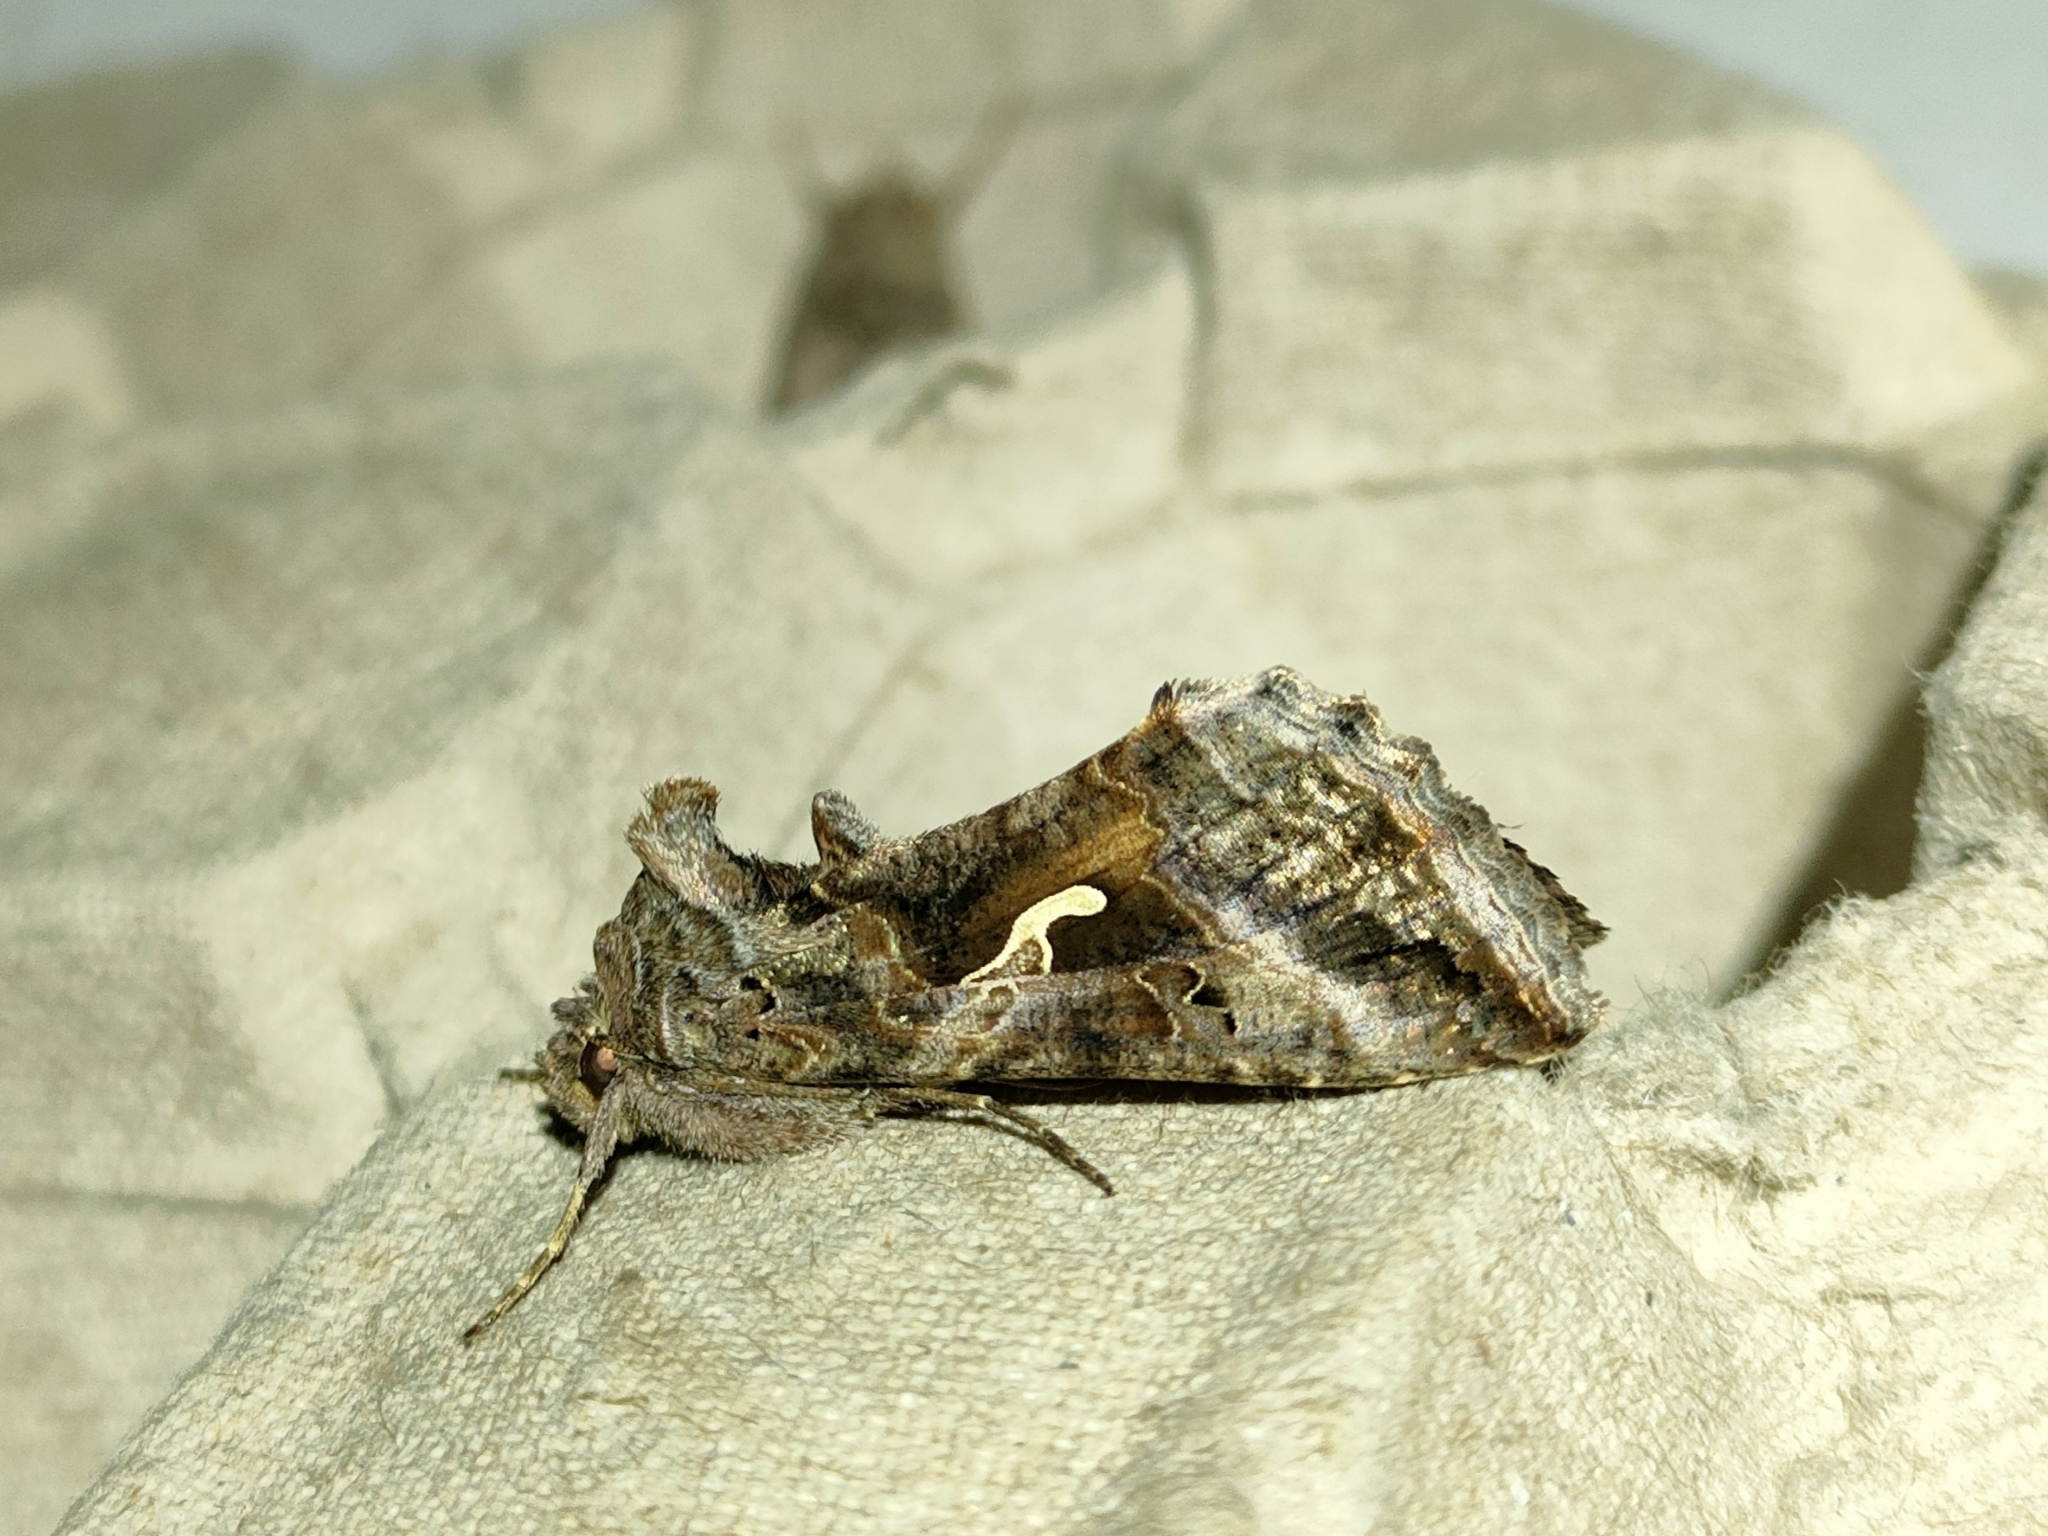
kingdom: Animalia
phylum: Arthropoda
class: Insecta
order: Lepidoptera
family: Noctuidae
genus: Autographa
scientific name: Autographa gamma
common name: Silver y
